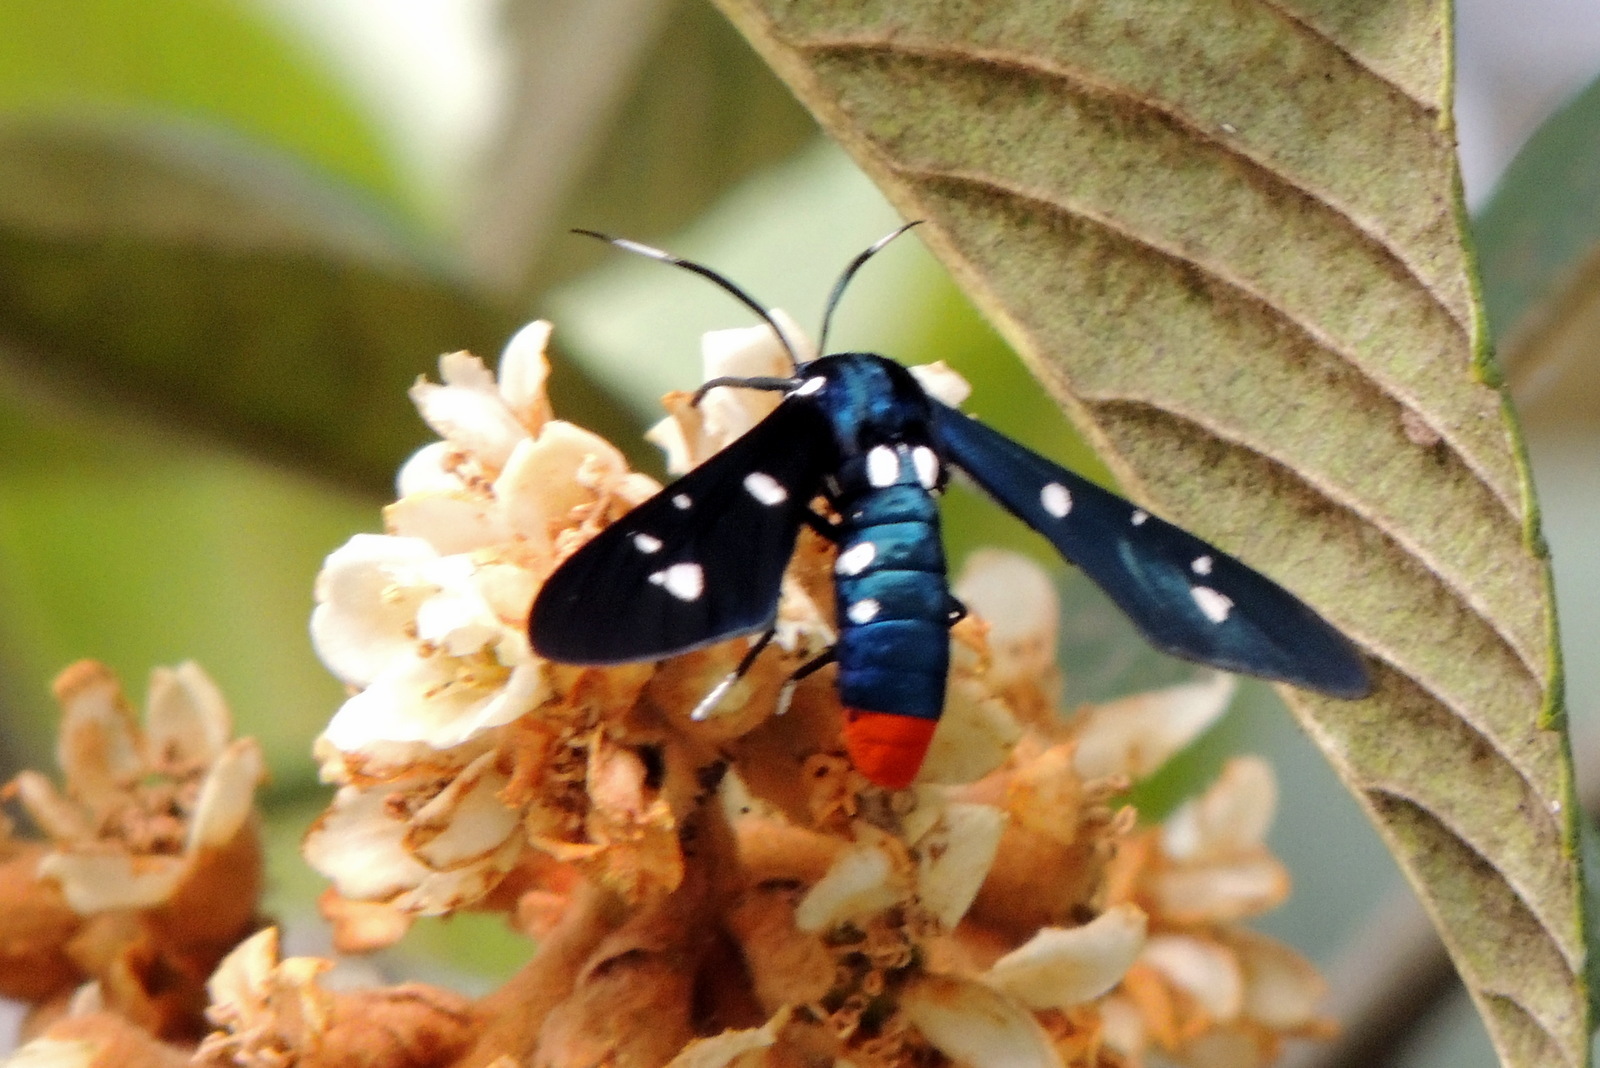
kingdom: Animalia
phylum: Arthropoda
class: Insecta
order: Lepidoptera
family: Erebidae
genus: Syntomeida
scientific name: Syntomeida epilais
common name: Polka-dot wasp moth
